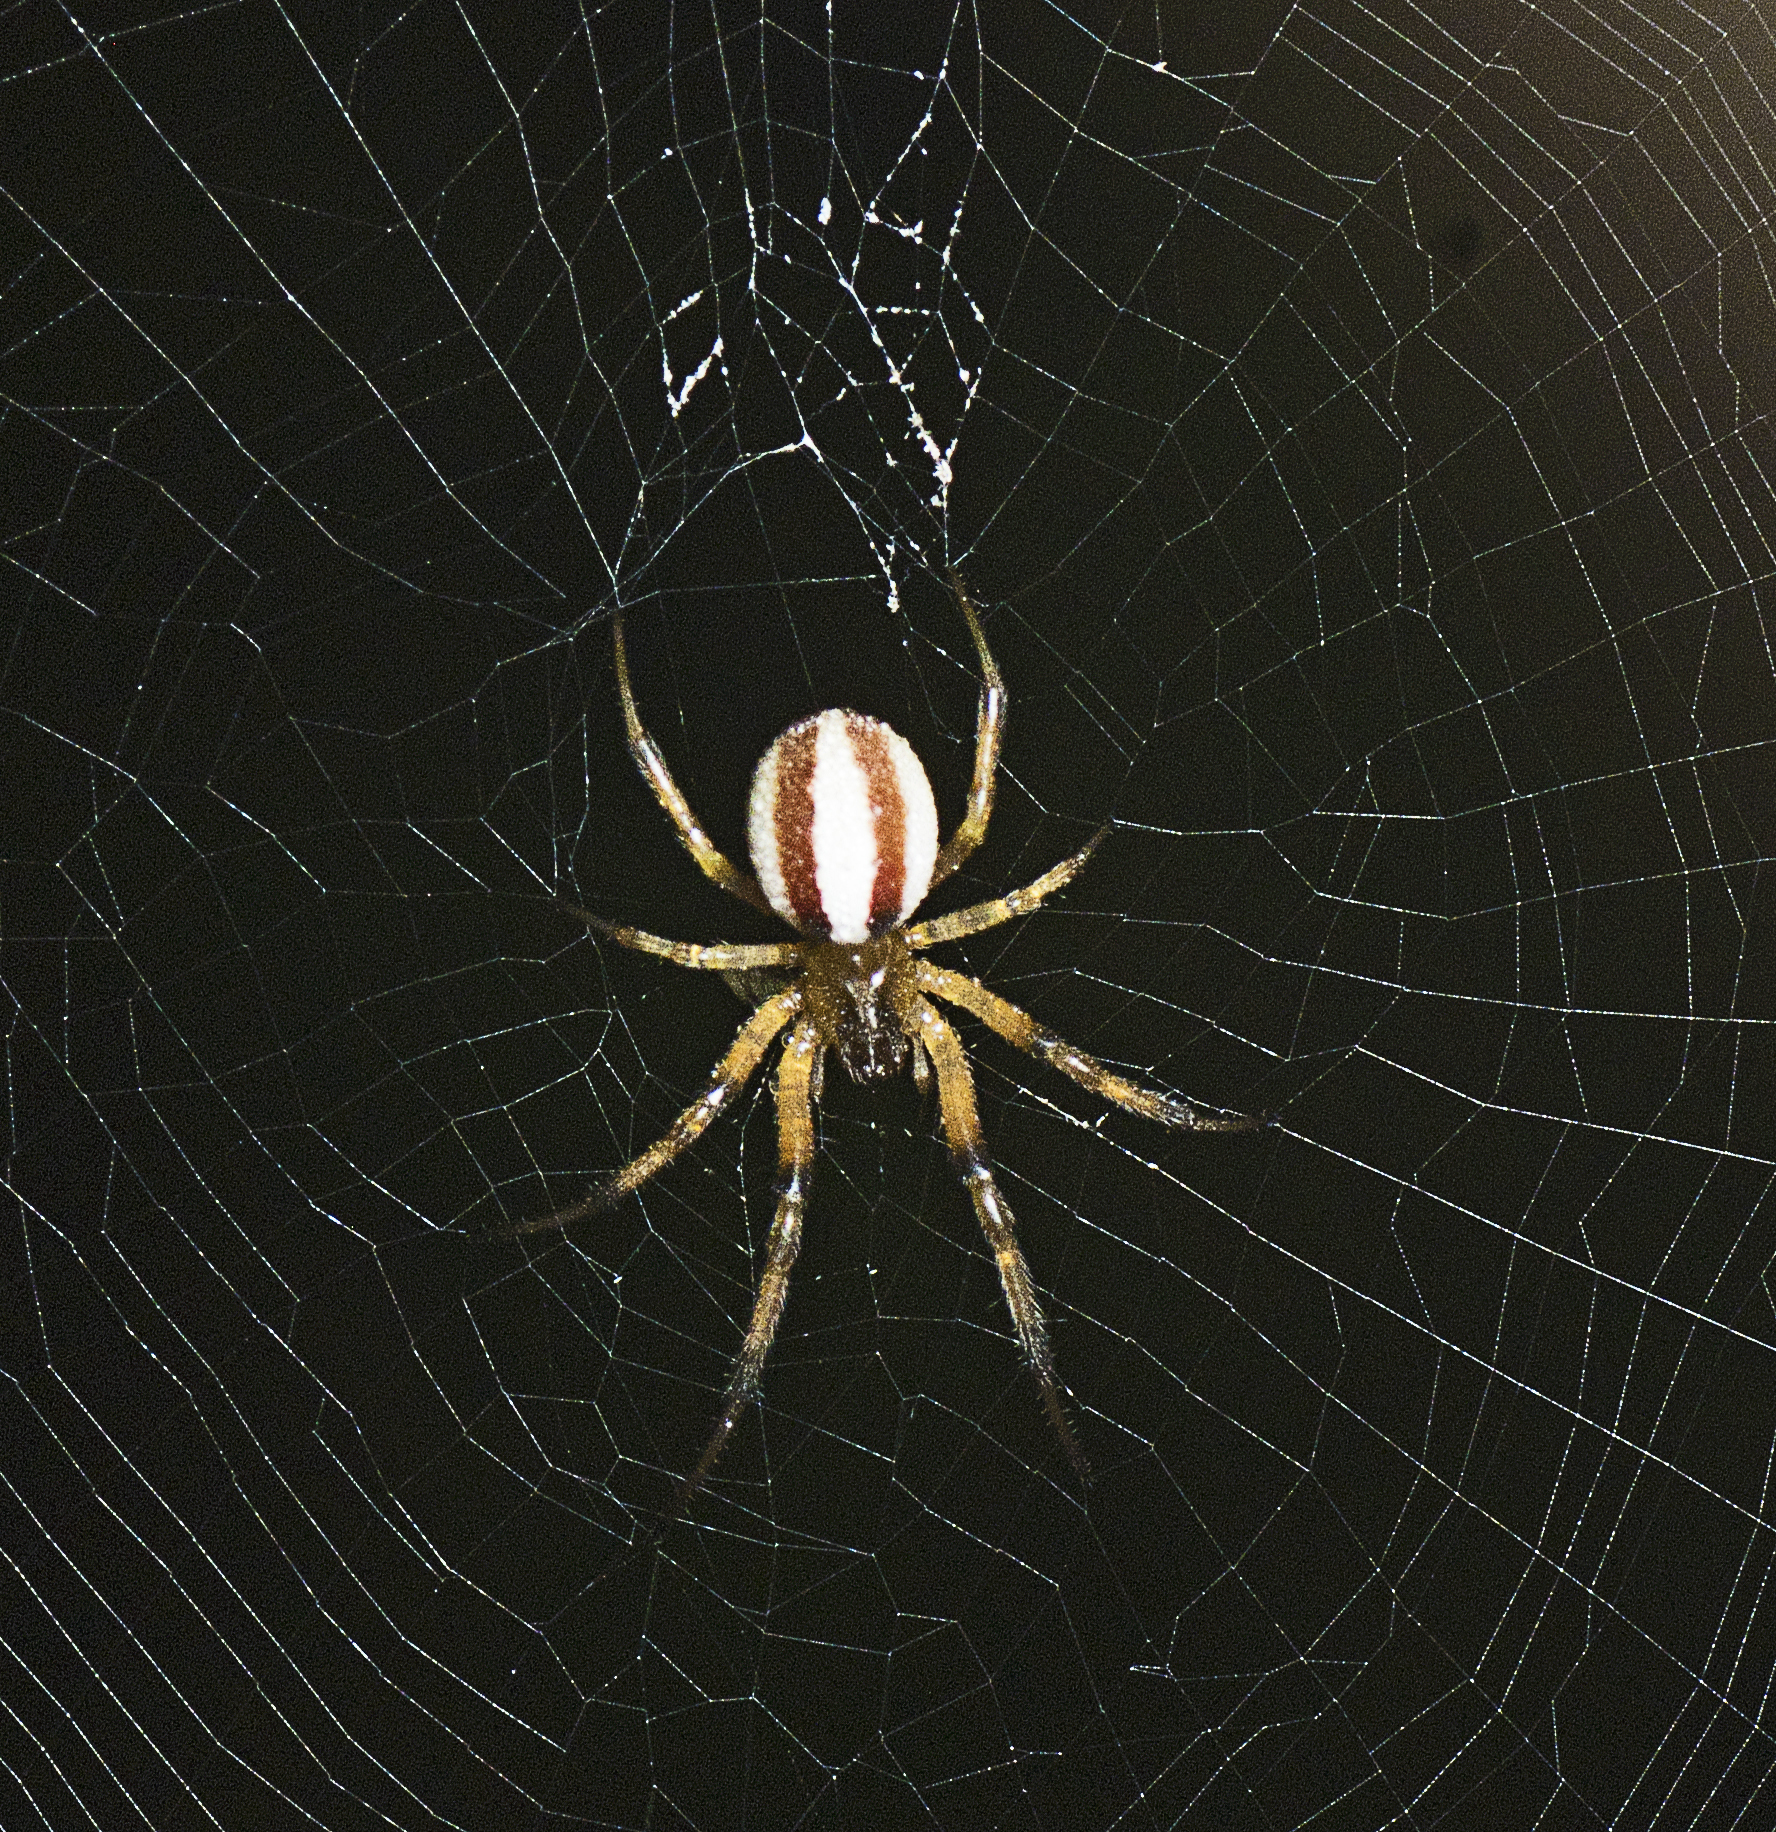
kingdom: Animalia
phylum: Arthropoda
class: Arachnida
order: Araneae
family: Araneidae
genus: Deliochus
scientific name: Deliochus idoneus
